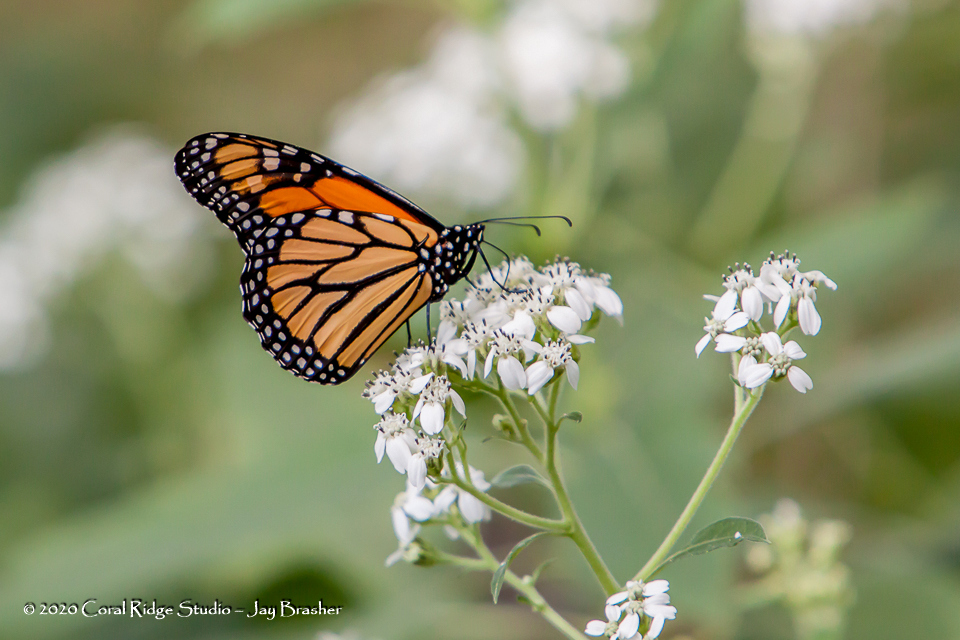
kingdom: Animalia
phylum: Arthropoda
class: Insecta
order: Lepidoptera
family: Nymphalidae
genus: Danaus
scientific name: Danaus plexippus
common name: Monarch
